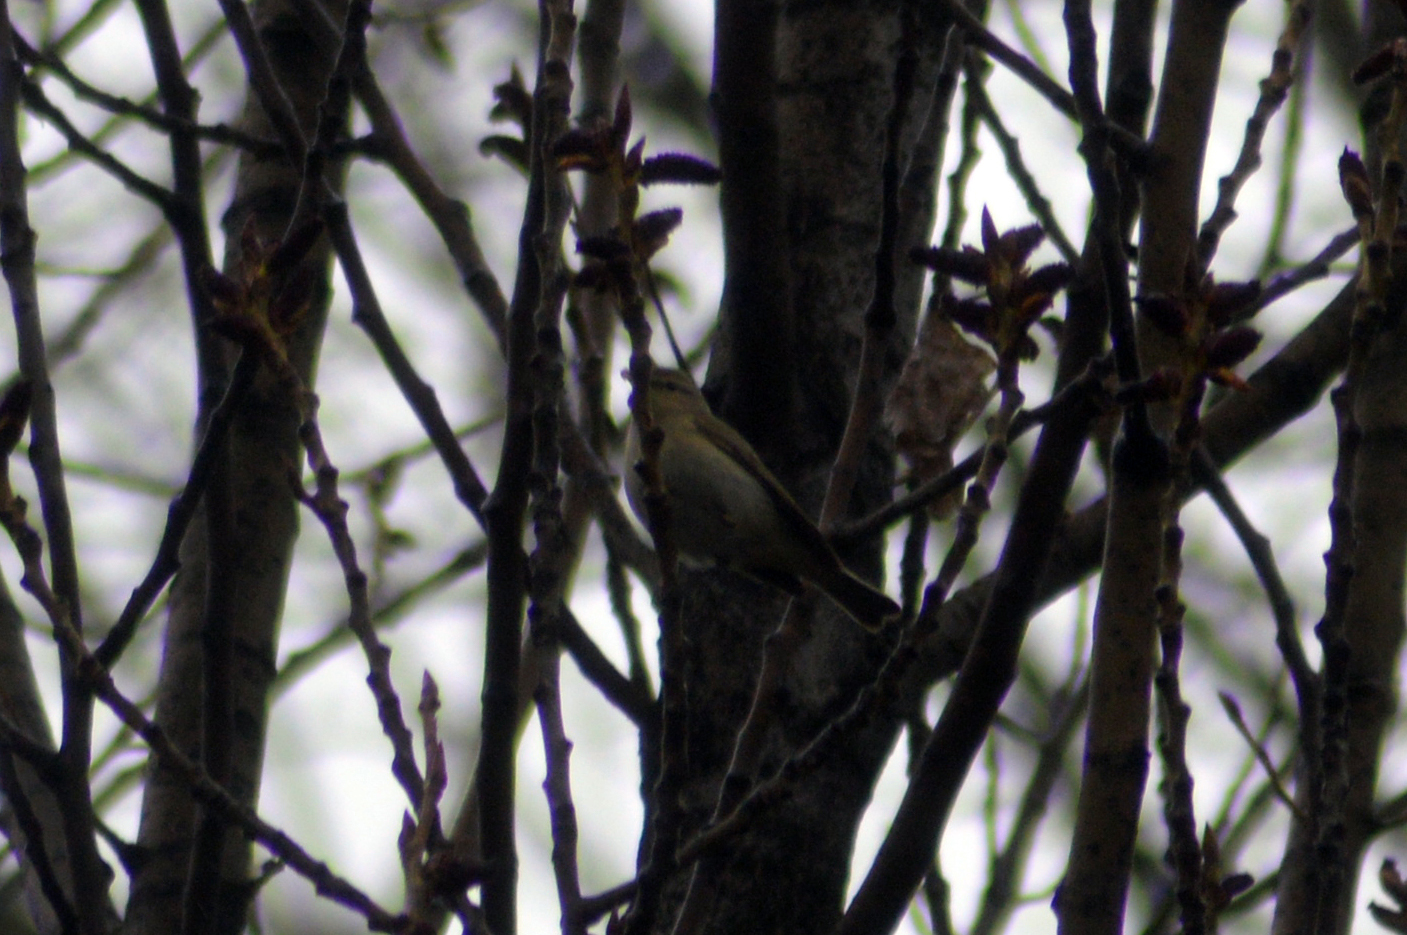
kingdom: Animalia
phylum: Chordata
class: Aves
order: Passeriformes
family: Phylloscopidae
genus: Phylloscopus
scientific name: Phylloscopus collybita
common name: Common chiffchaff
